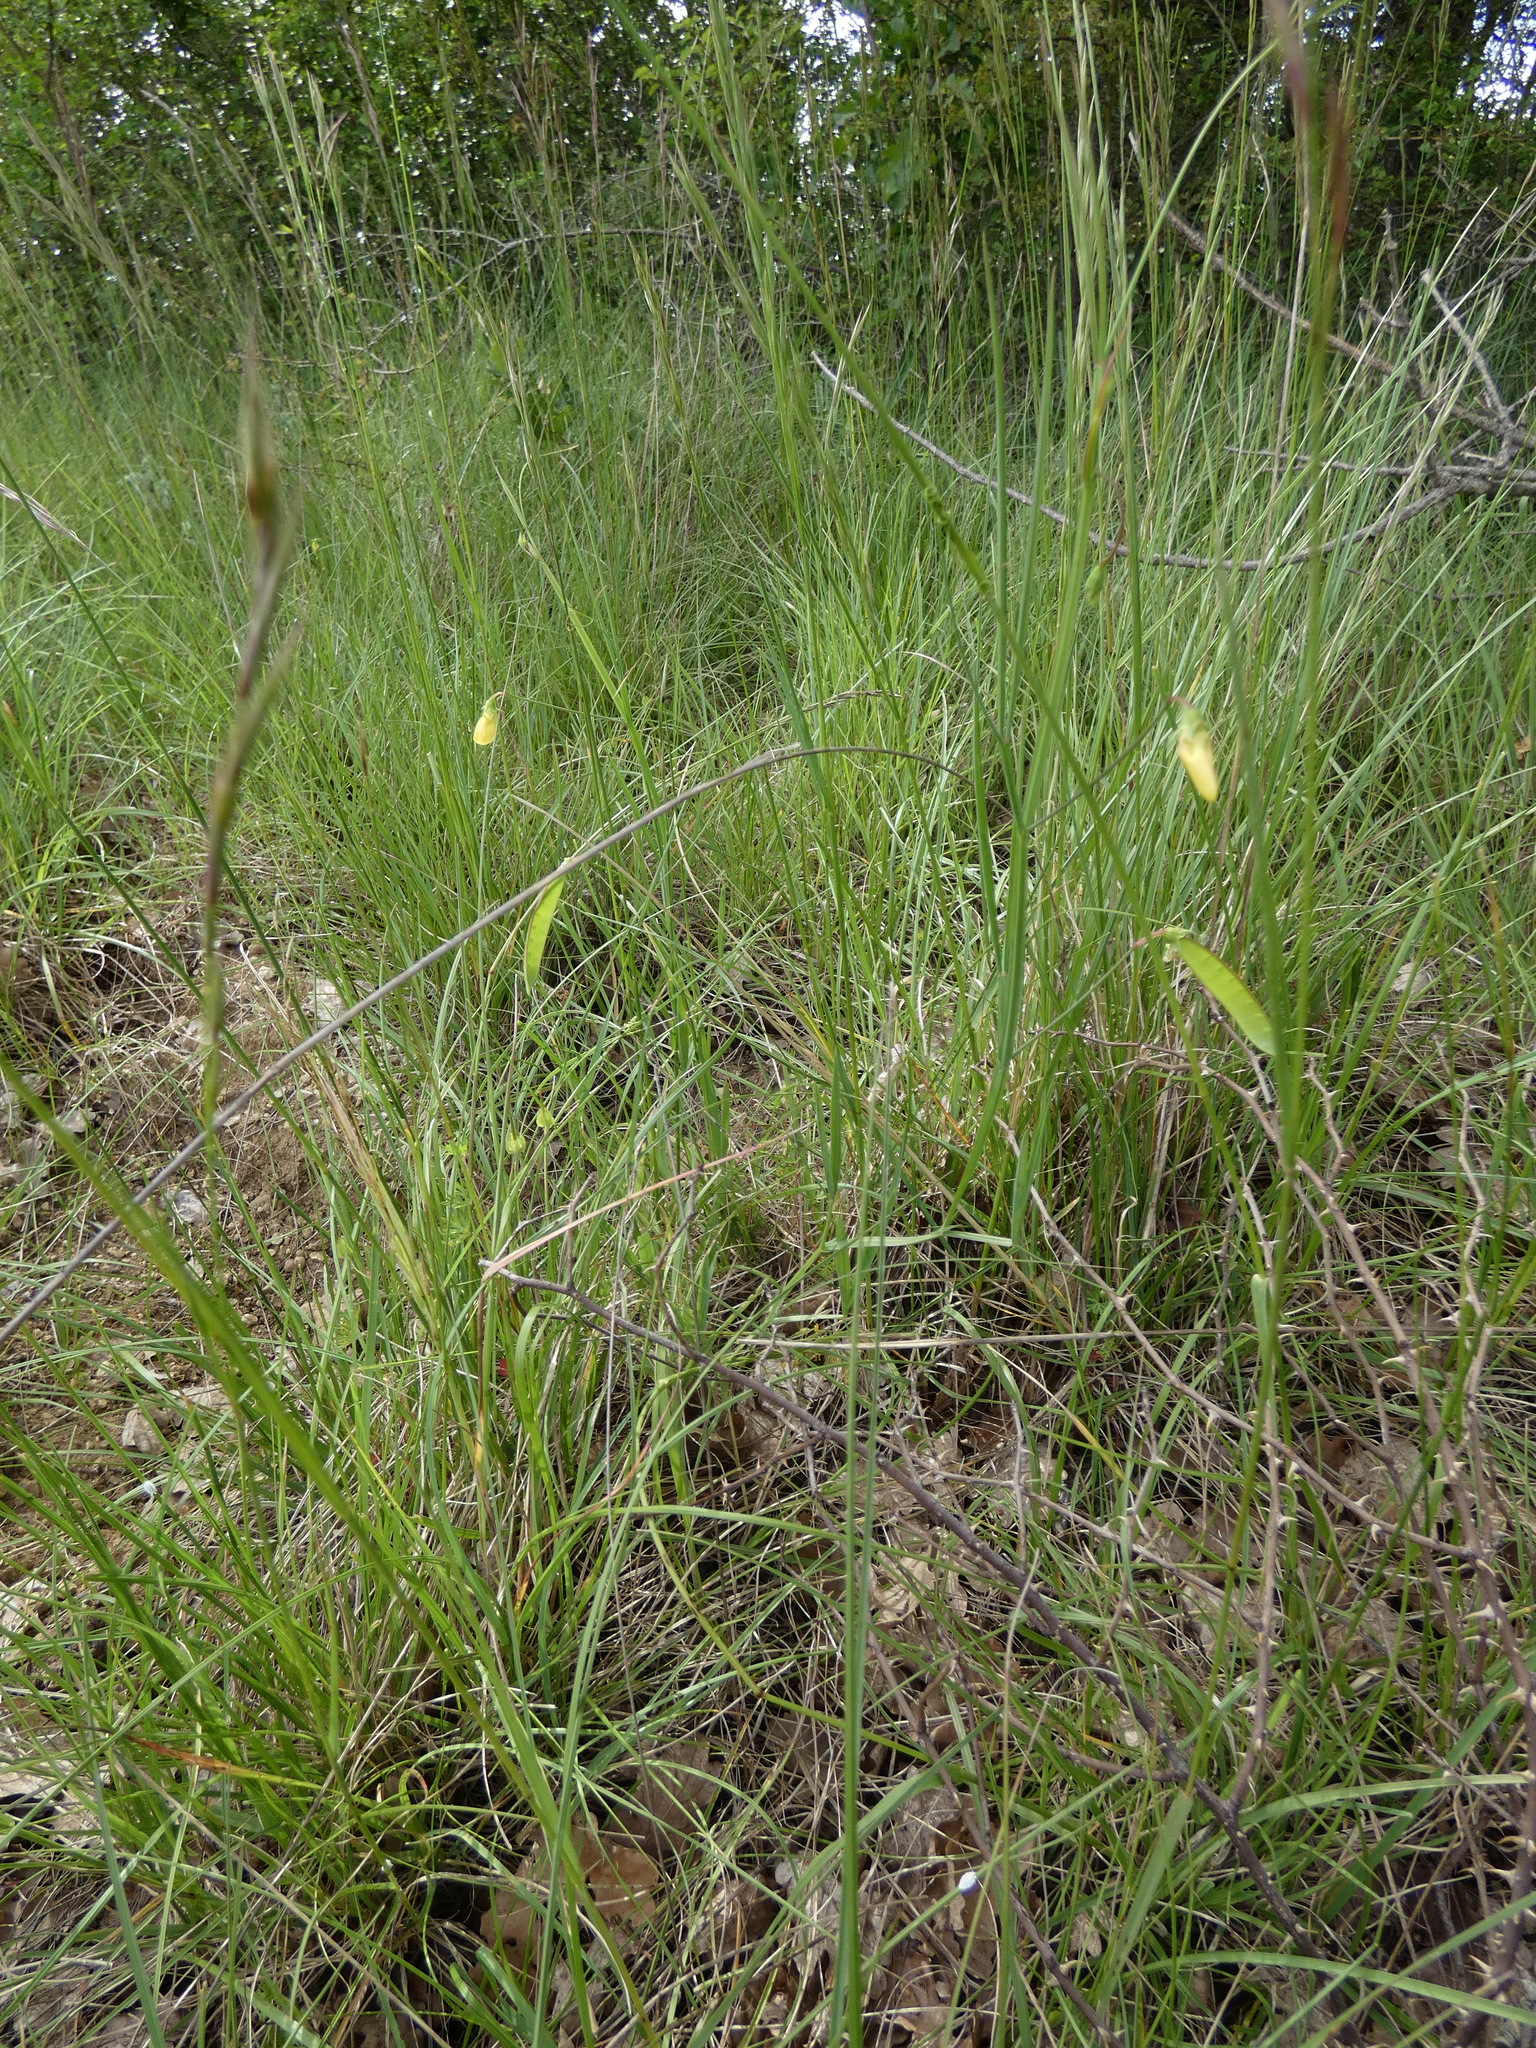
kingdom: Plantae
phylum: Tracheophyta
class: Magnoliopsida
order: Fabales
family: Fabaceae
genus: Lathyrus
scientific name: Lathyrus annuus
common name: Fodder pea
